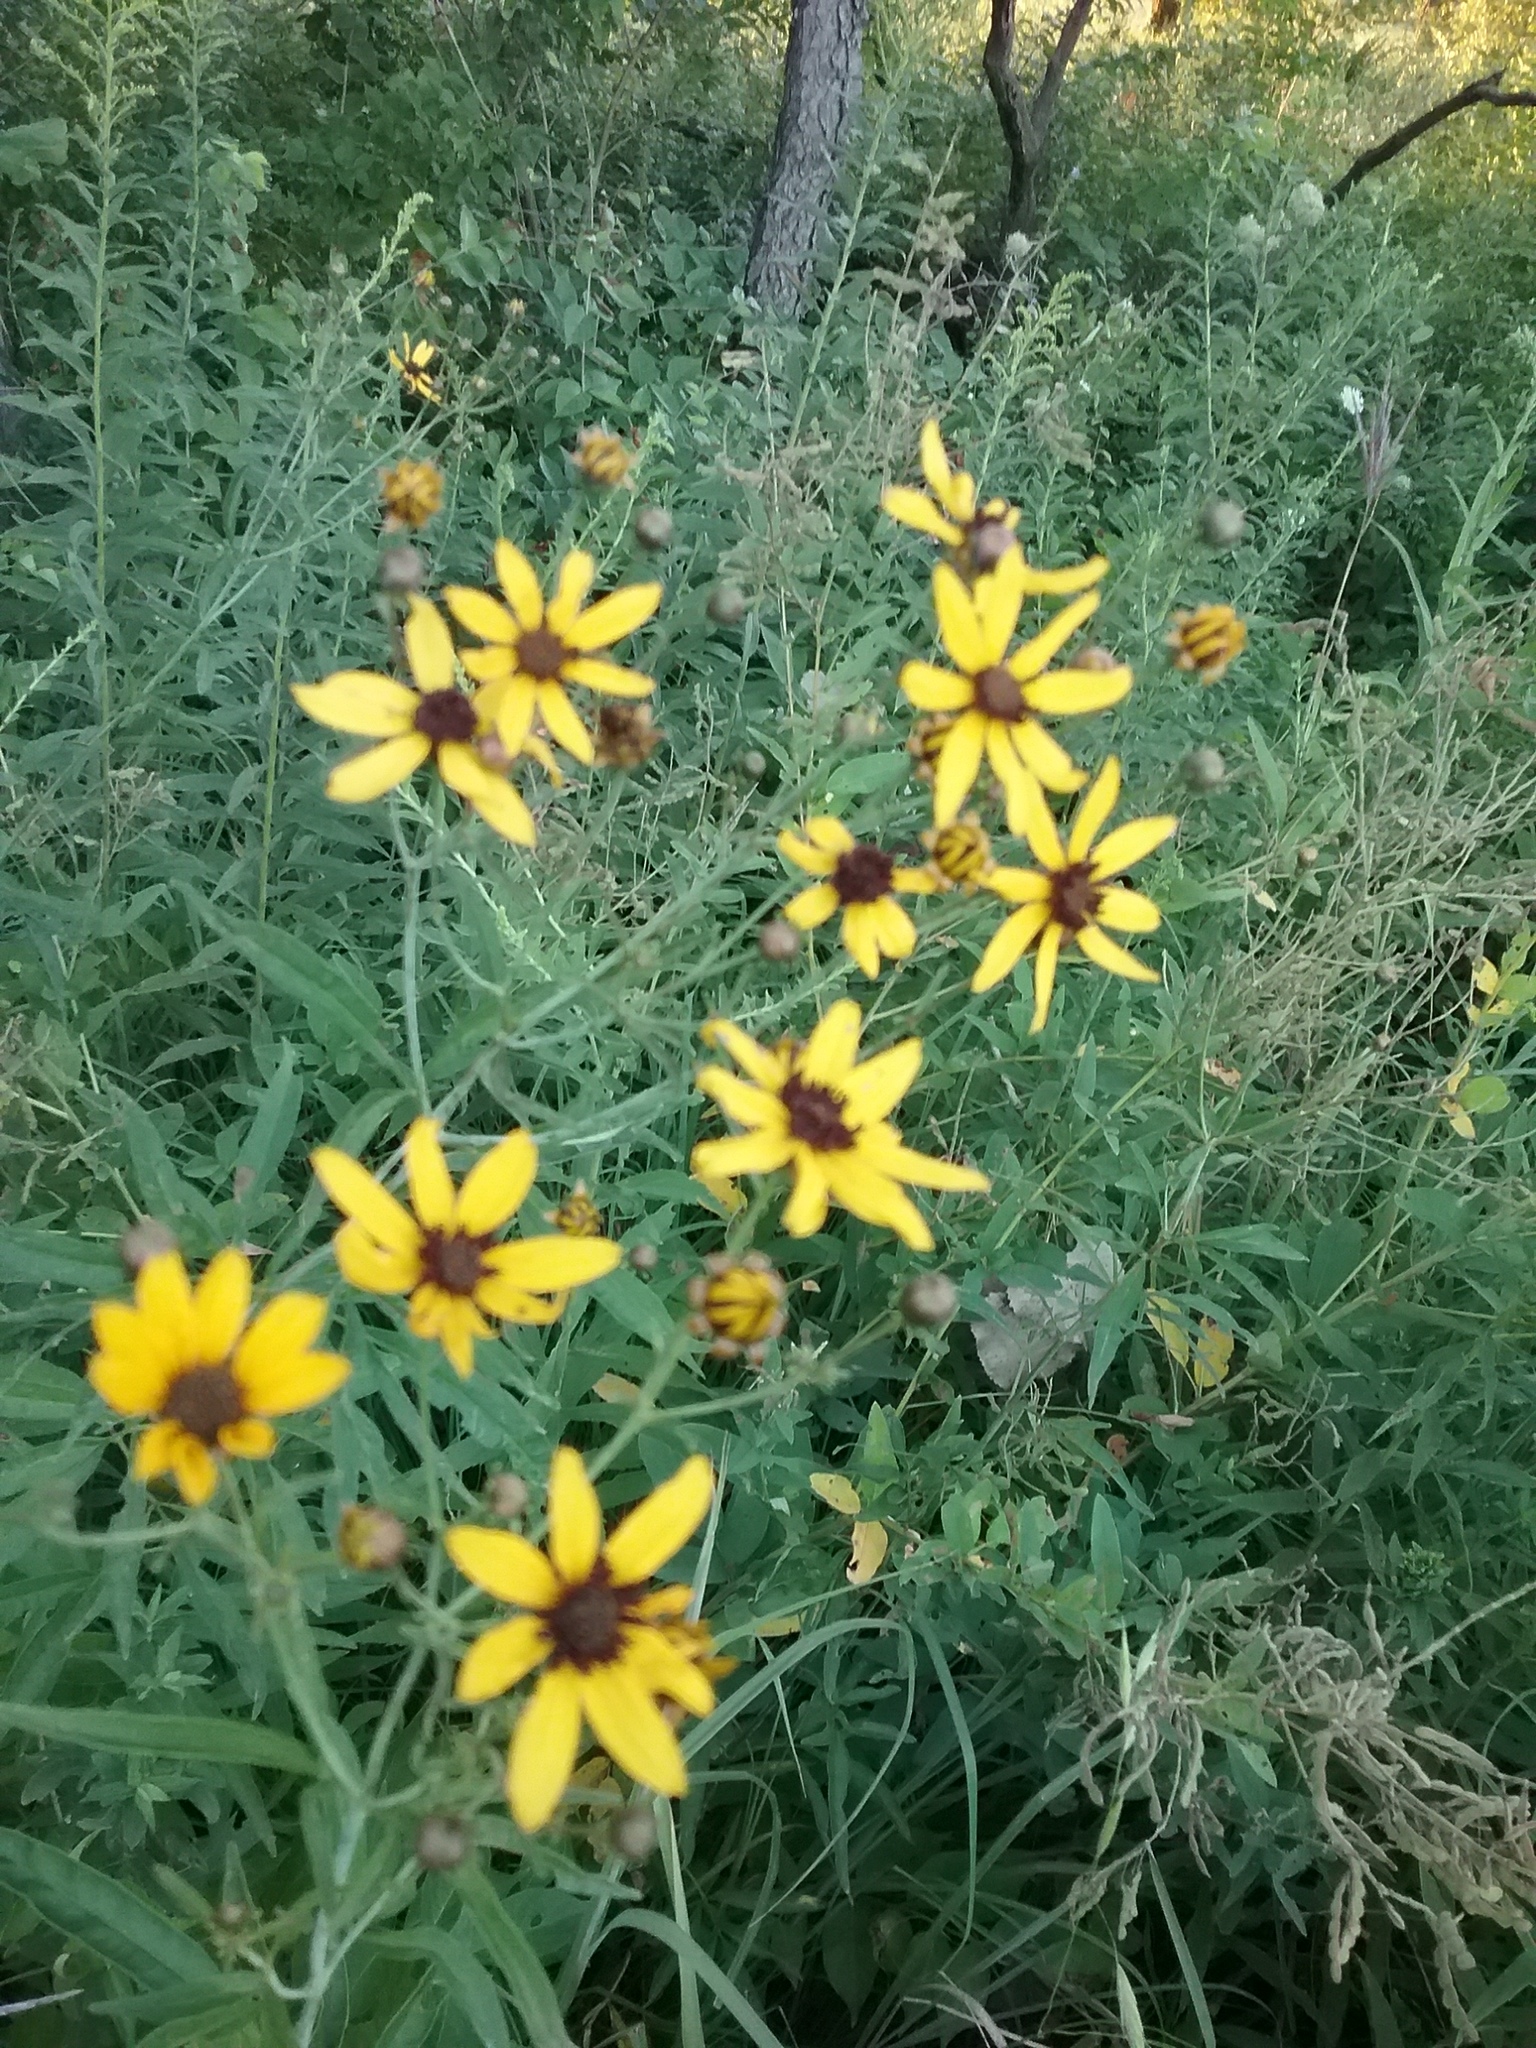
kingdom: Plantae
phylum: Tracheophyta
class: Magnoliopsida
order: Asterales
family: Asteraceae
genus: Coreopsis
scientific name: Coreopsis tripteris
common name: Tall coreopsis
